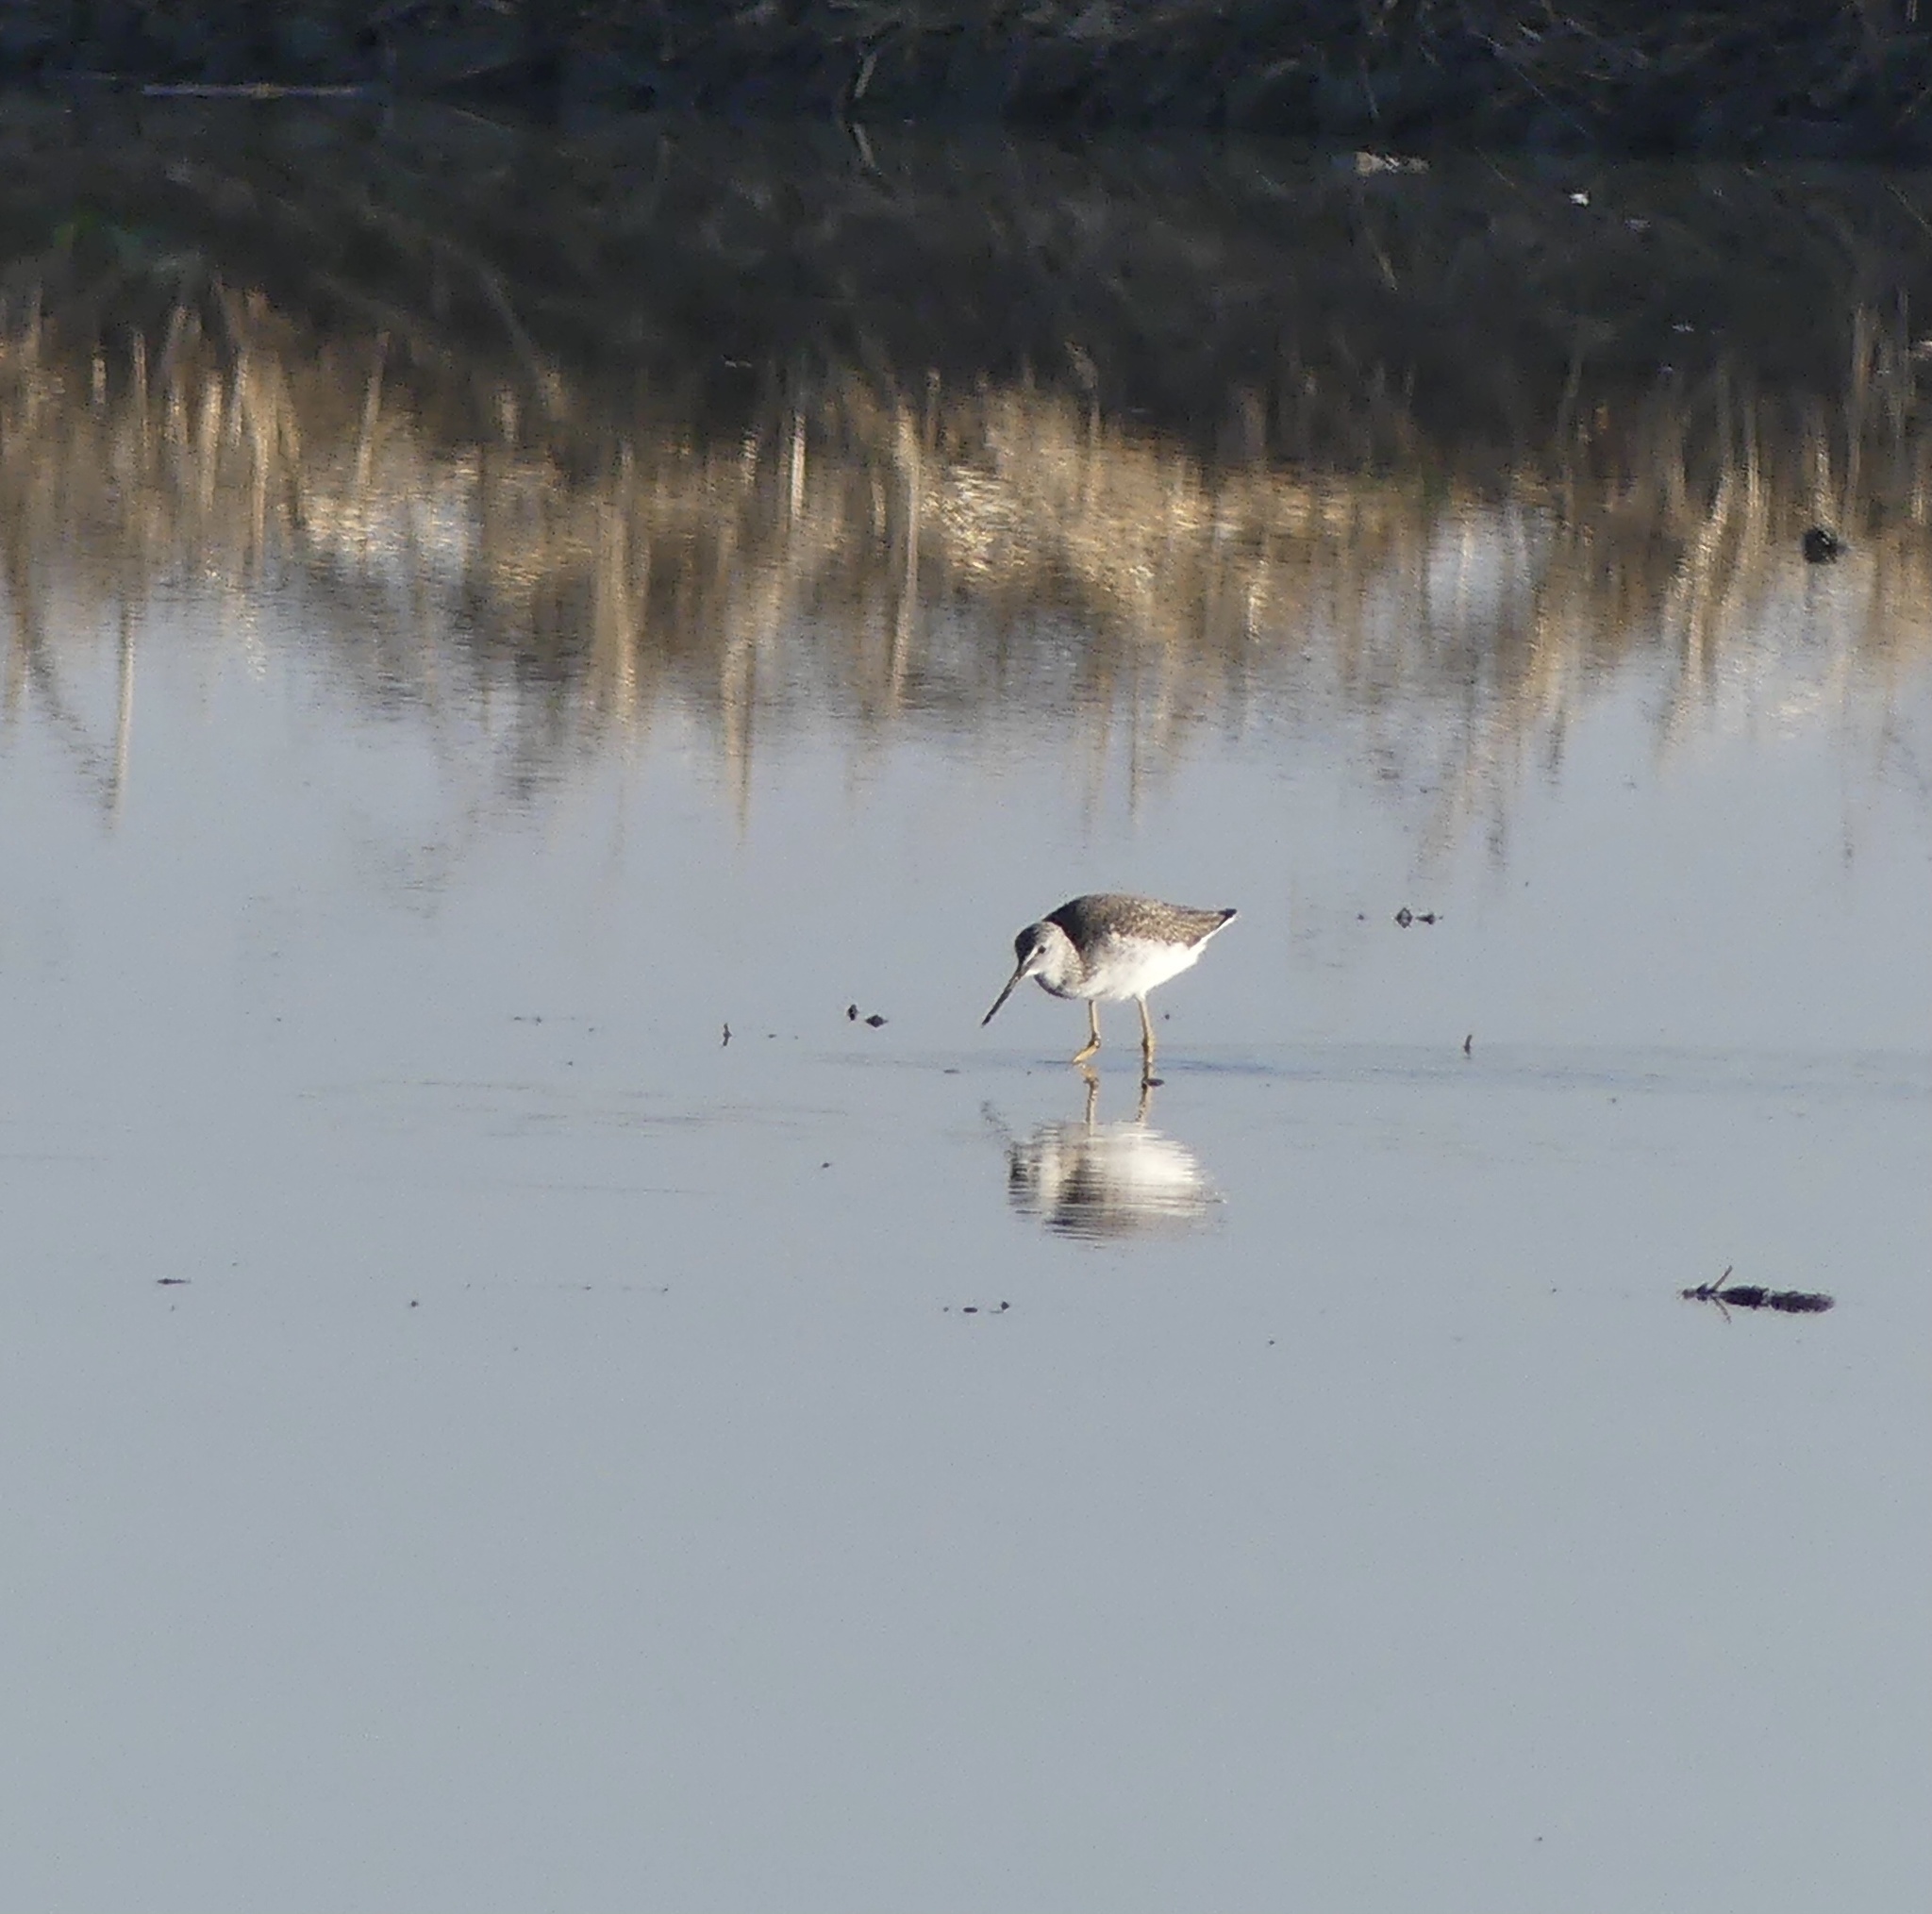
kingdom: Animalia
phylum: Chordata
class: Aves
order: Charadriiformes
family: Scolopacidae
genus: Tringa
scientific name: Tringa melanoleuca
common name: Greater yellowlegs
